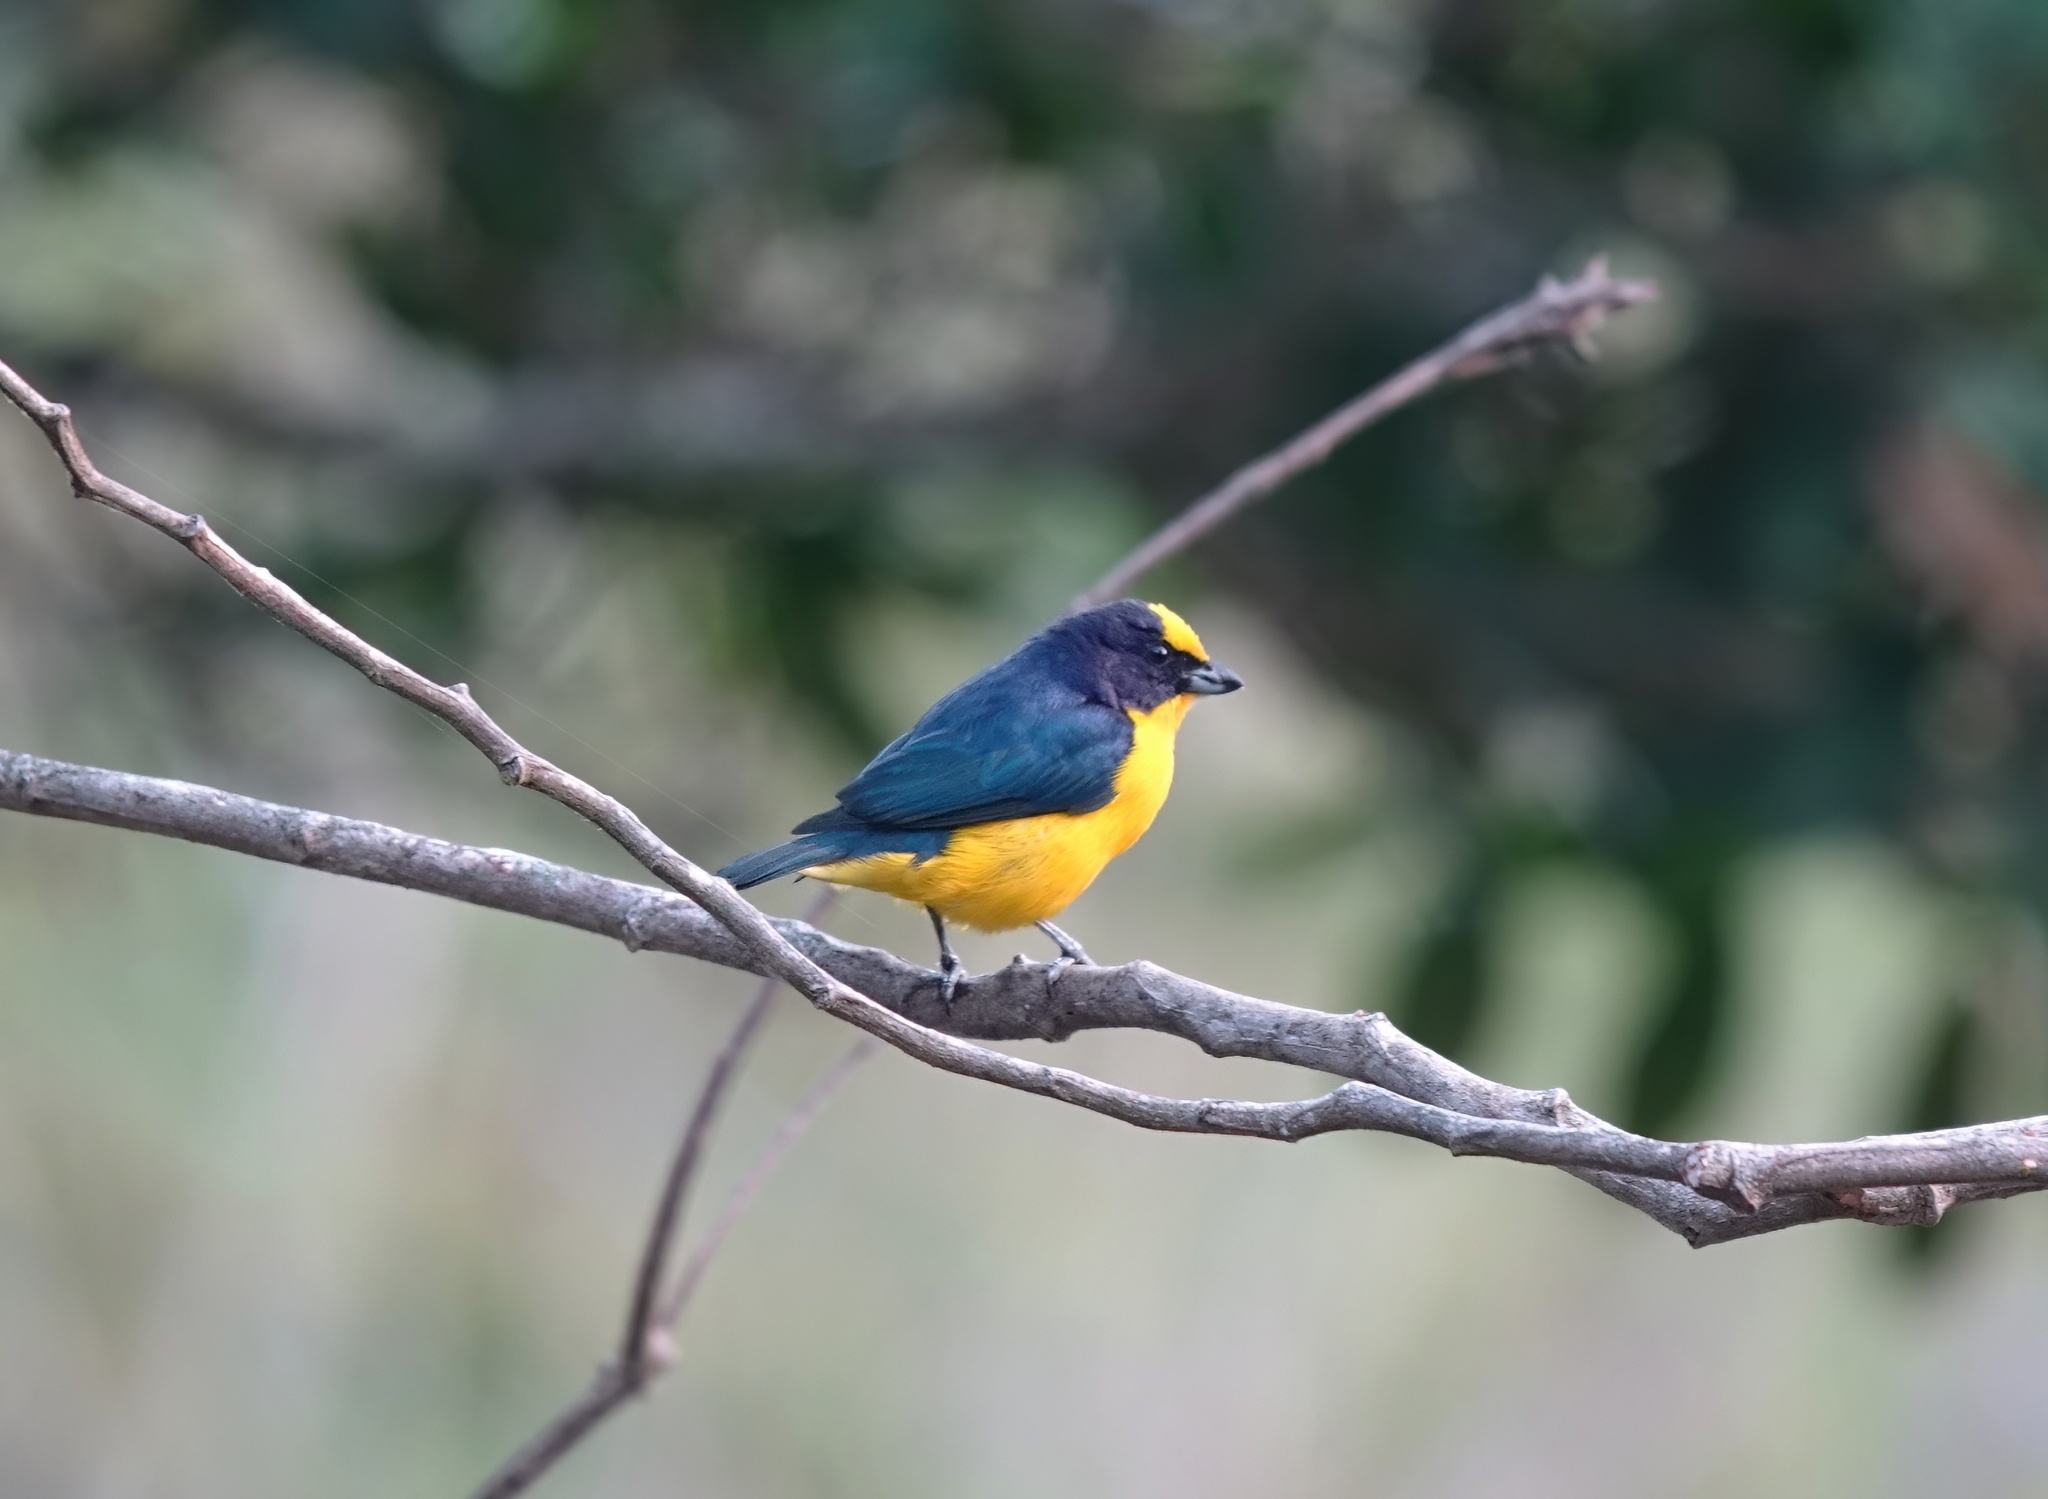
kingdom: Animalia
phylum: Chordata
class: Aves
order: Passeriformes
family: Fringillidae
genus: Euphonia
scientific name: Euphonia laniirostris
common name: Thick-billed euphonia
